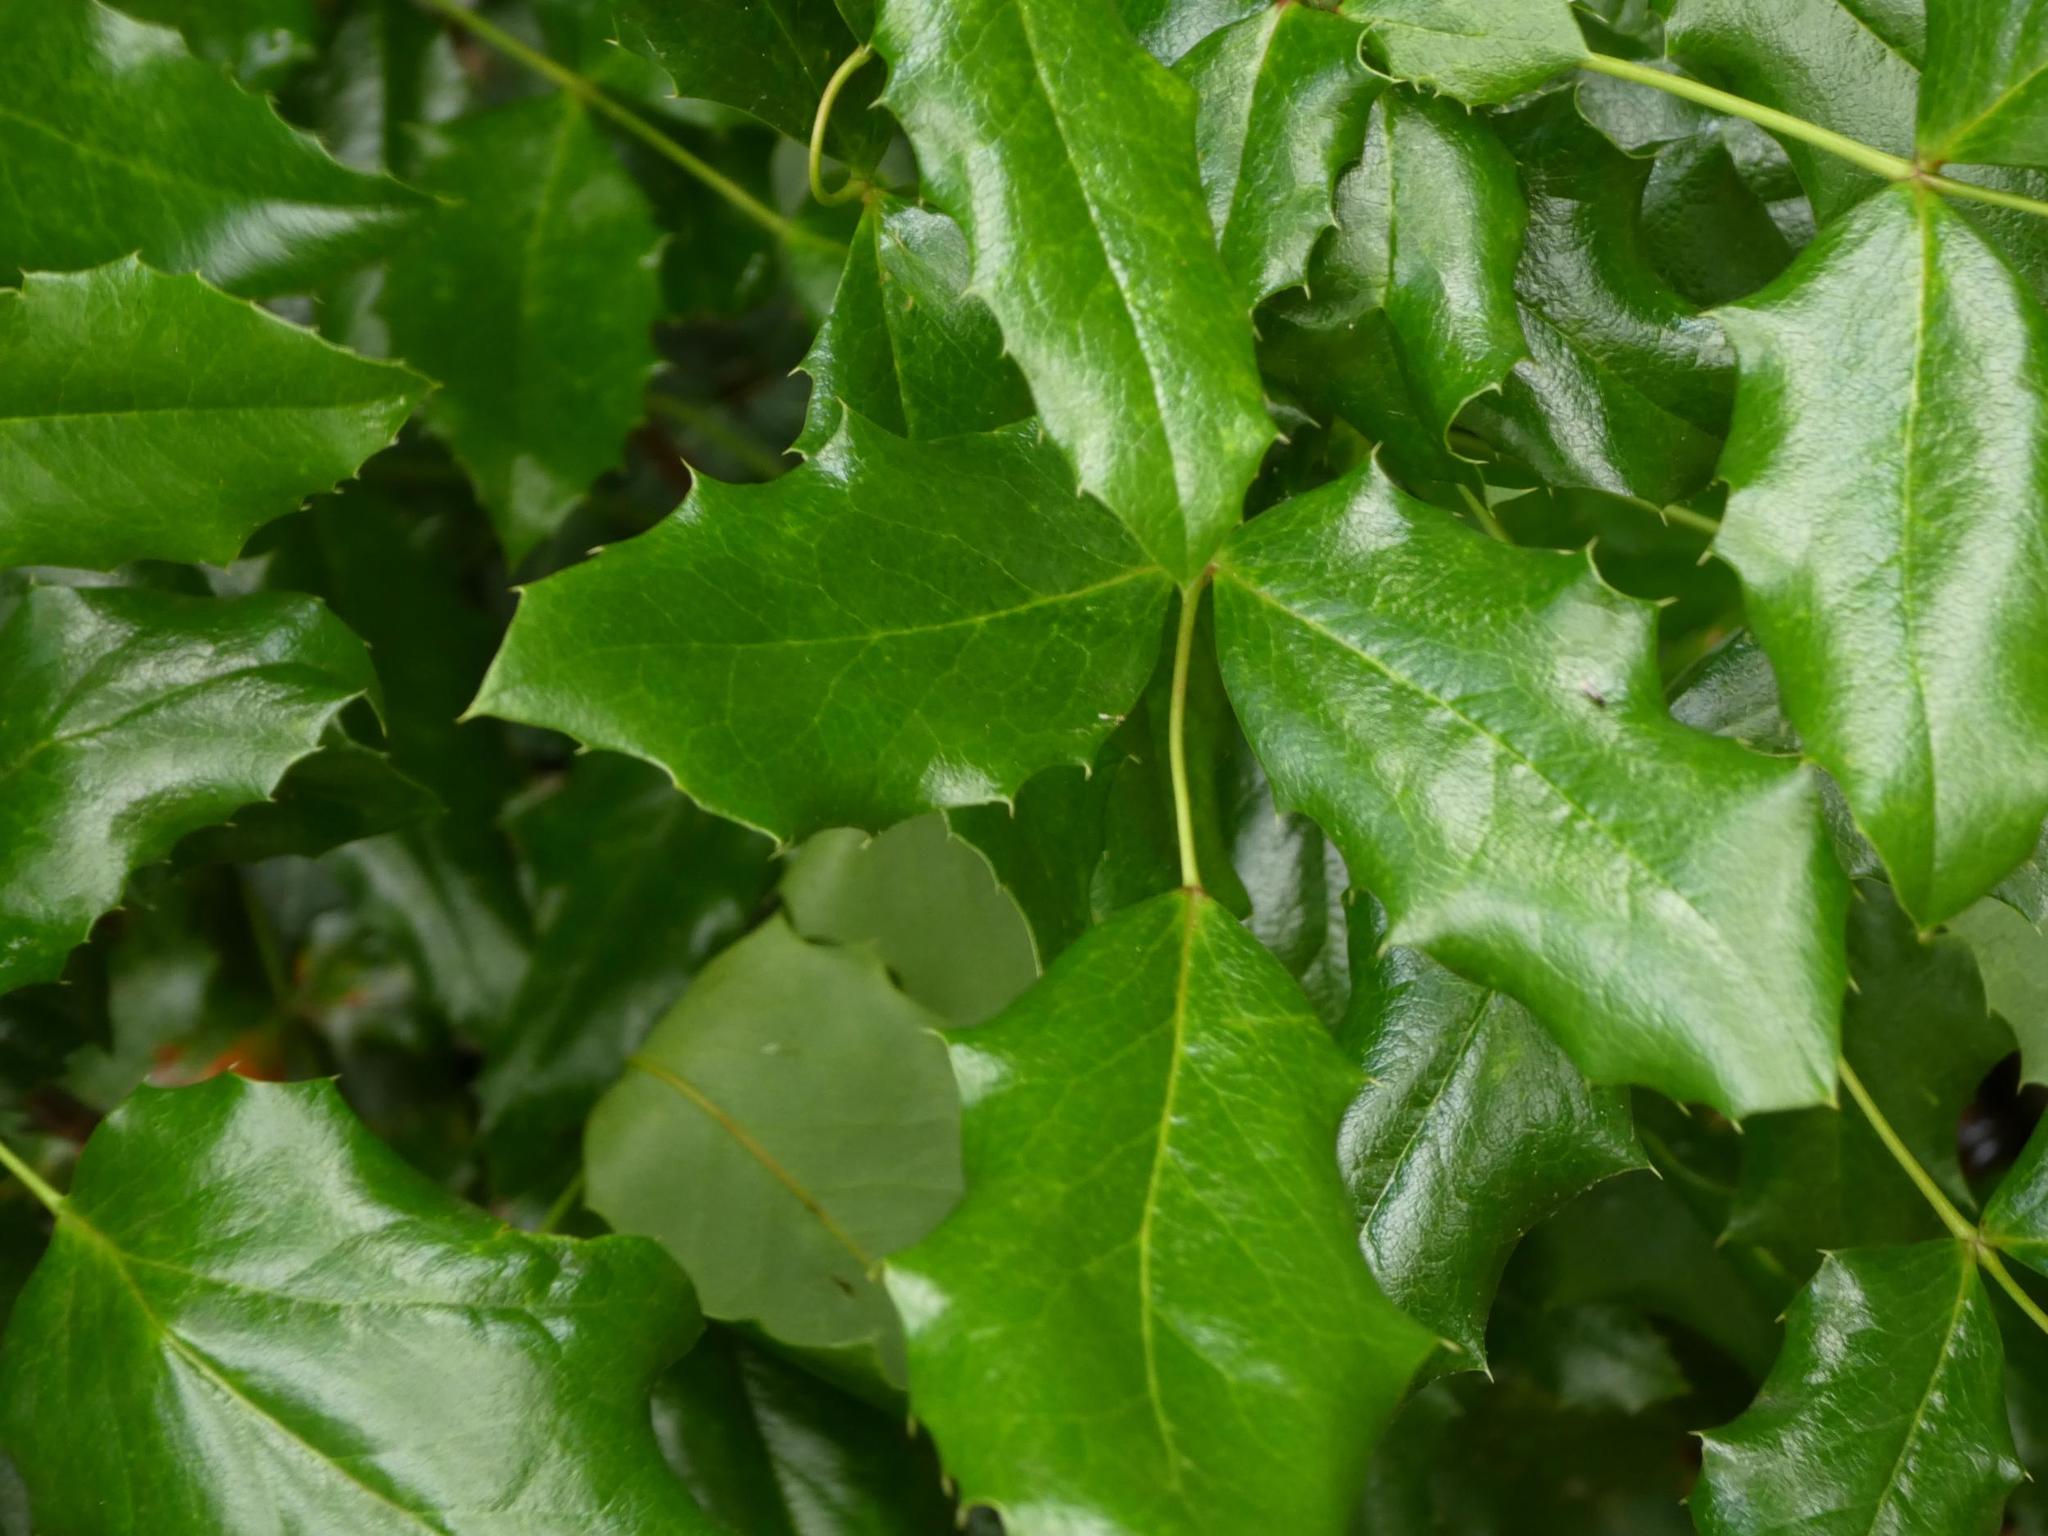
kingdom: Plantae
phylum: Tracheophyta
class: Magnoliopsida
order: Ranunculales
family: Berberidaceae
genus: Mahonia
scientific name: Mahonia aquifolium
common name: Oregon-grape
